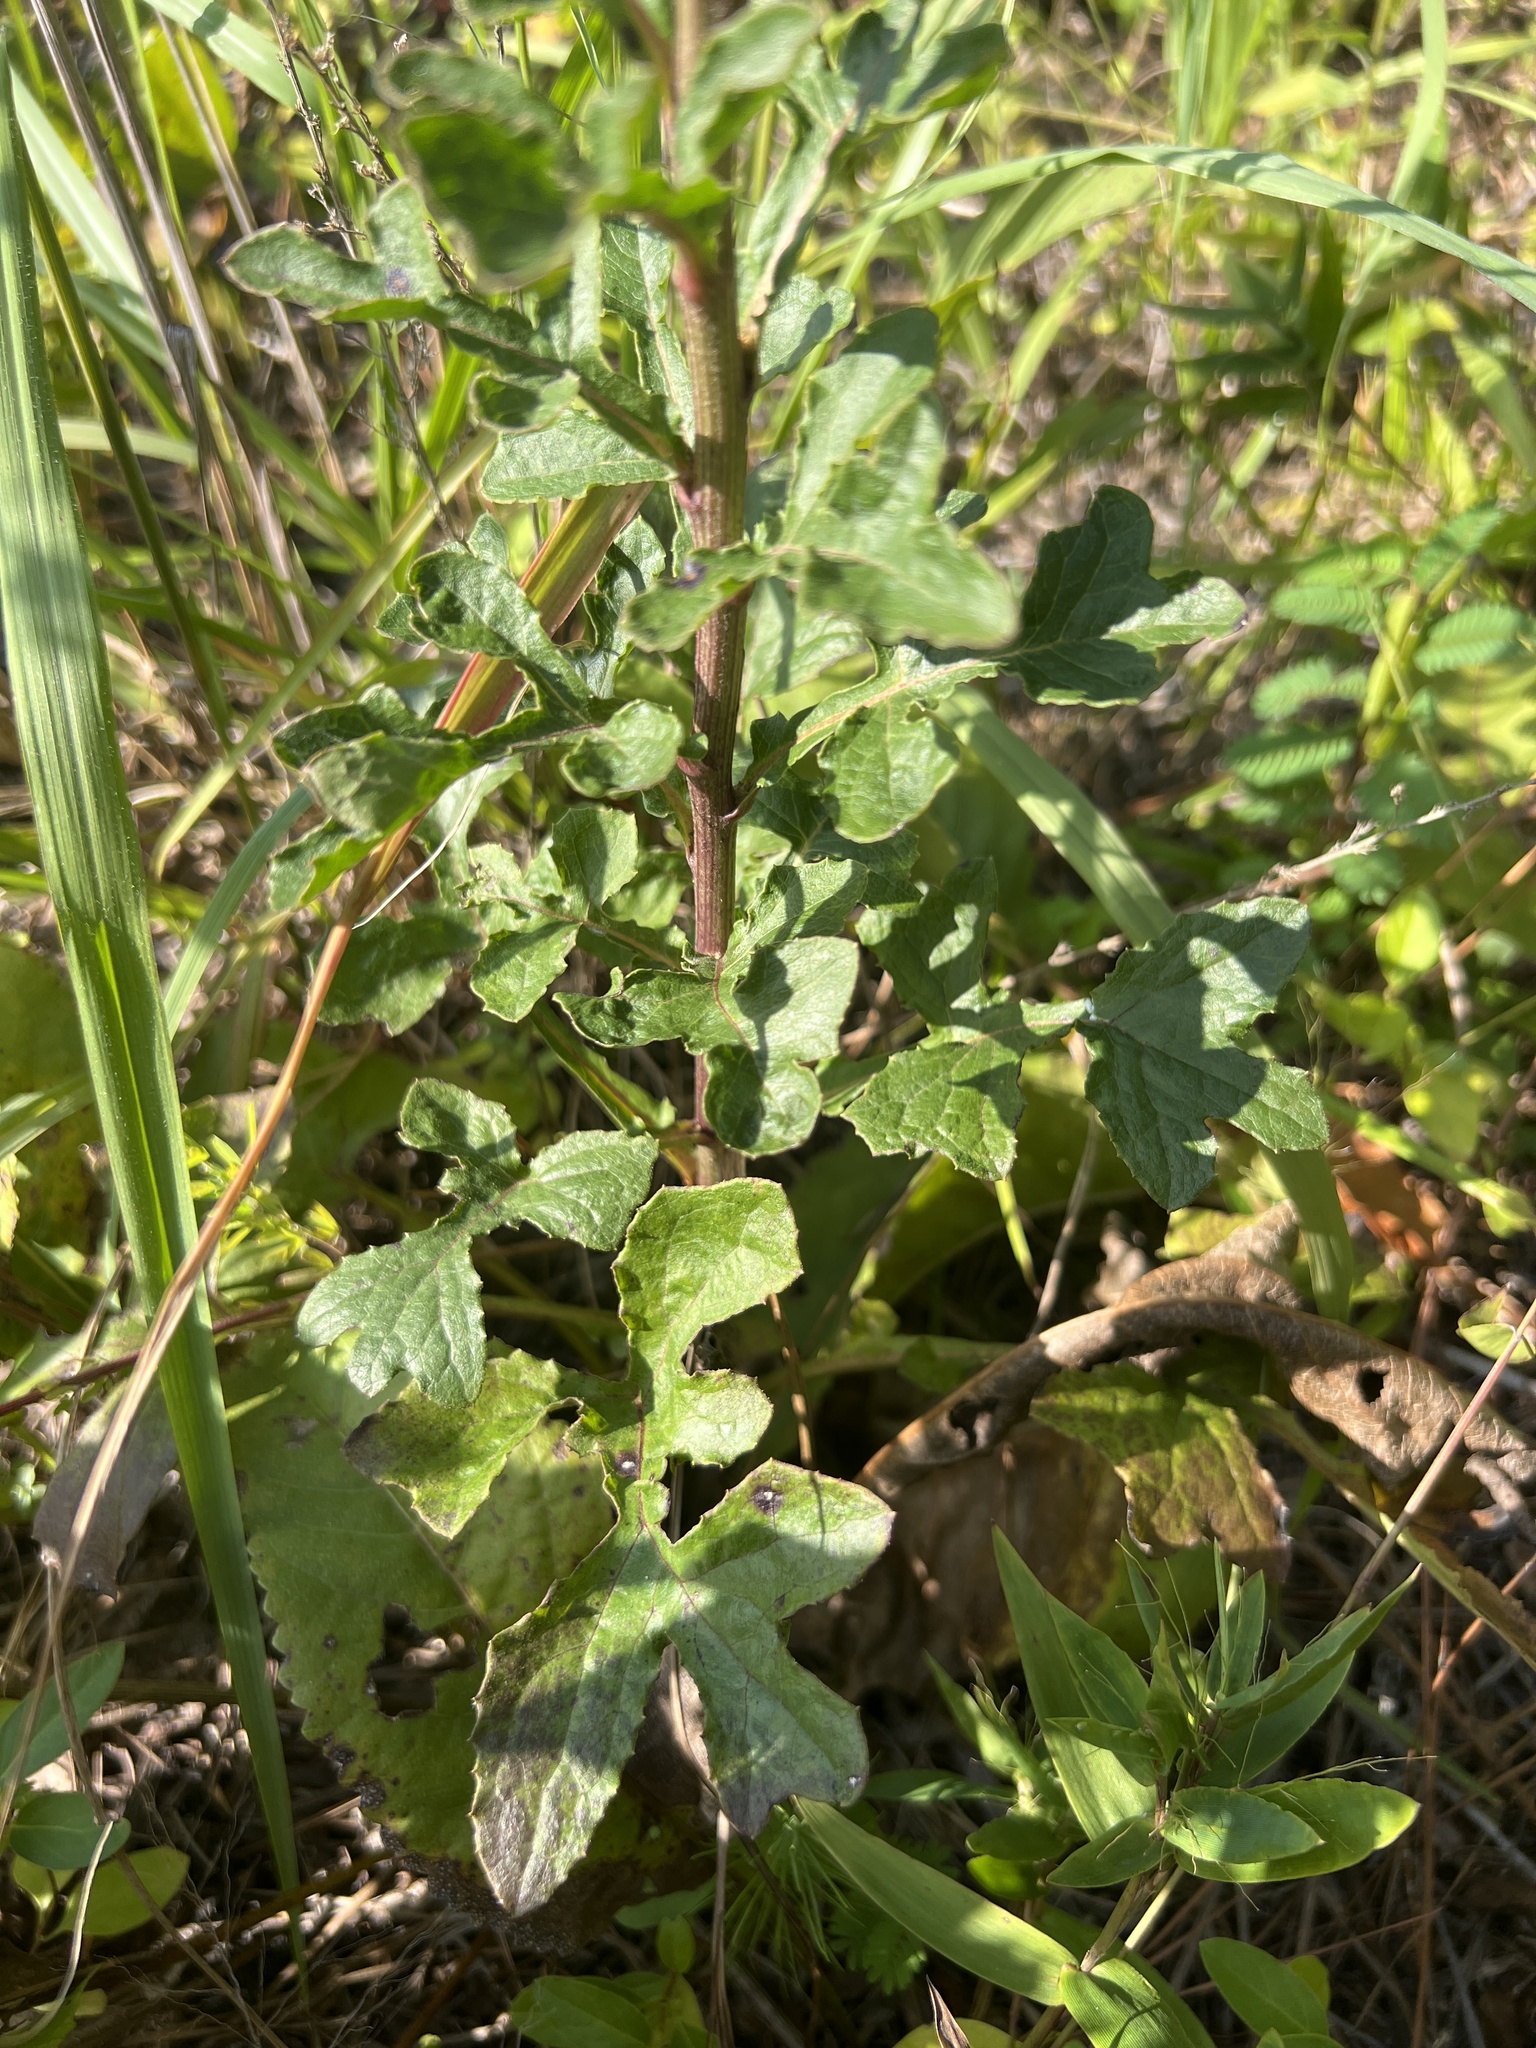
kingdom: Plantae
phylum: Tracheophyta
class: Magnoliopsida
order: Asterales
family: Asteraceae
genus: Nabalus
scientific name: Nabalus serpentarius
